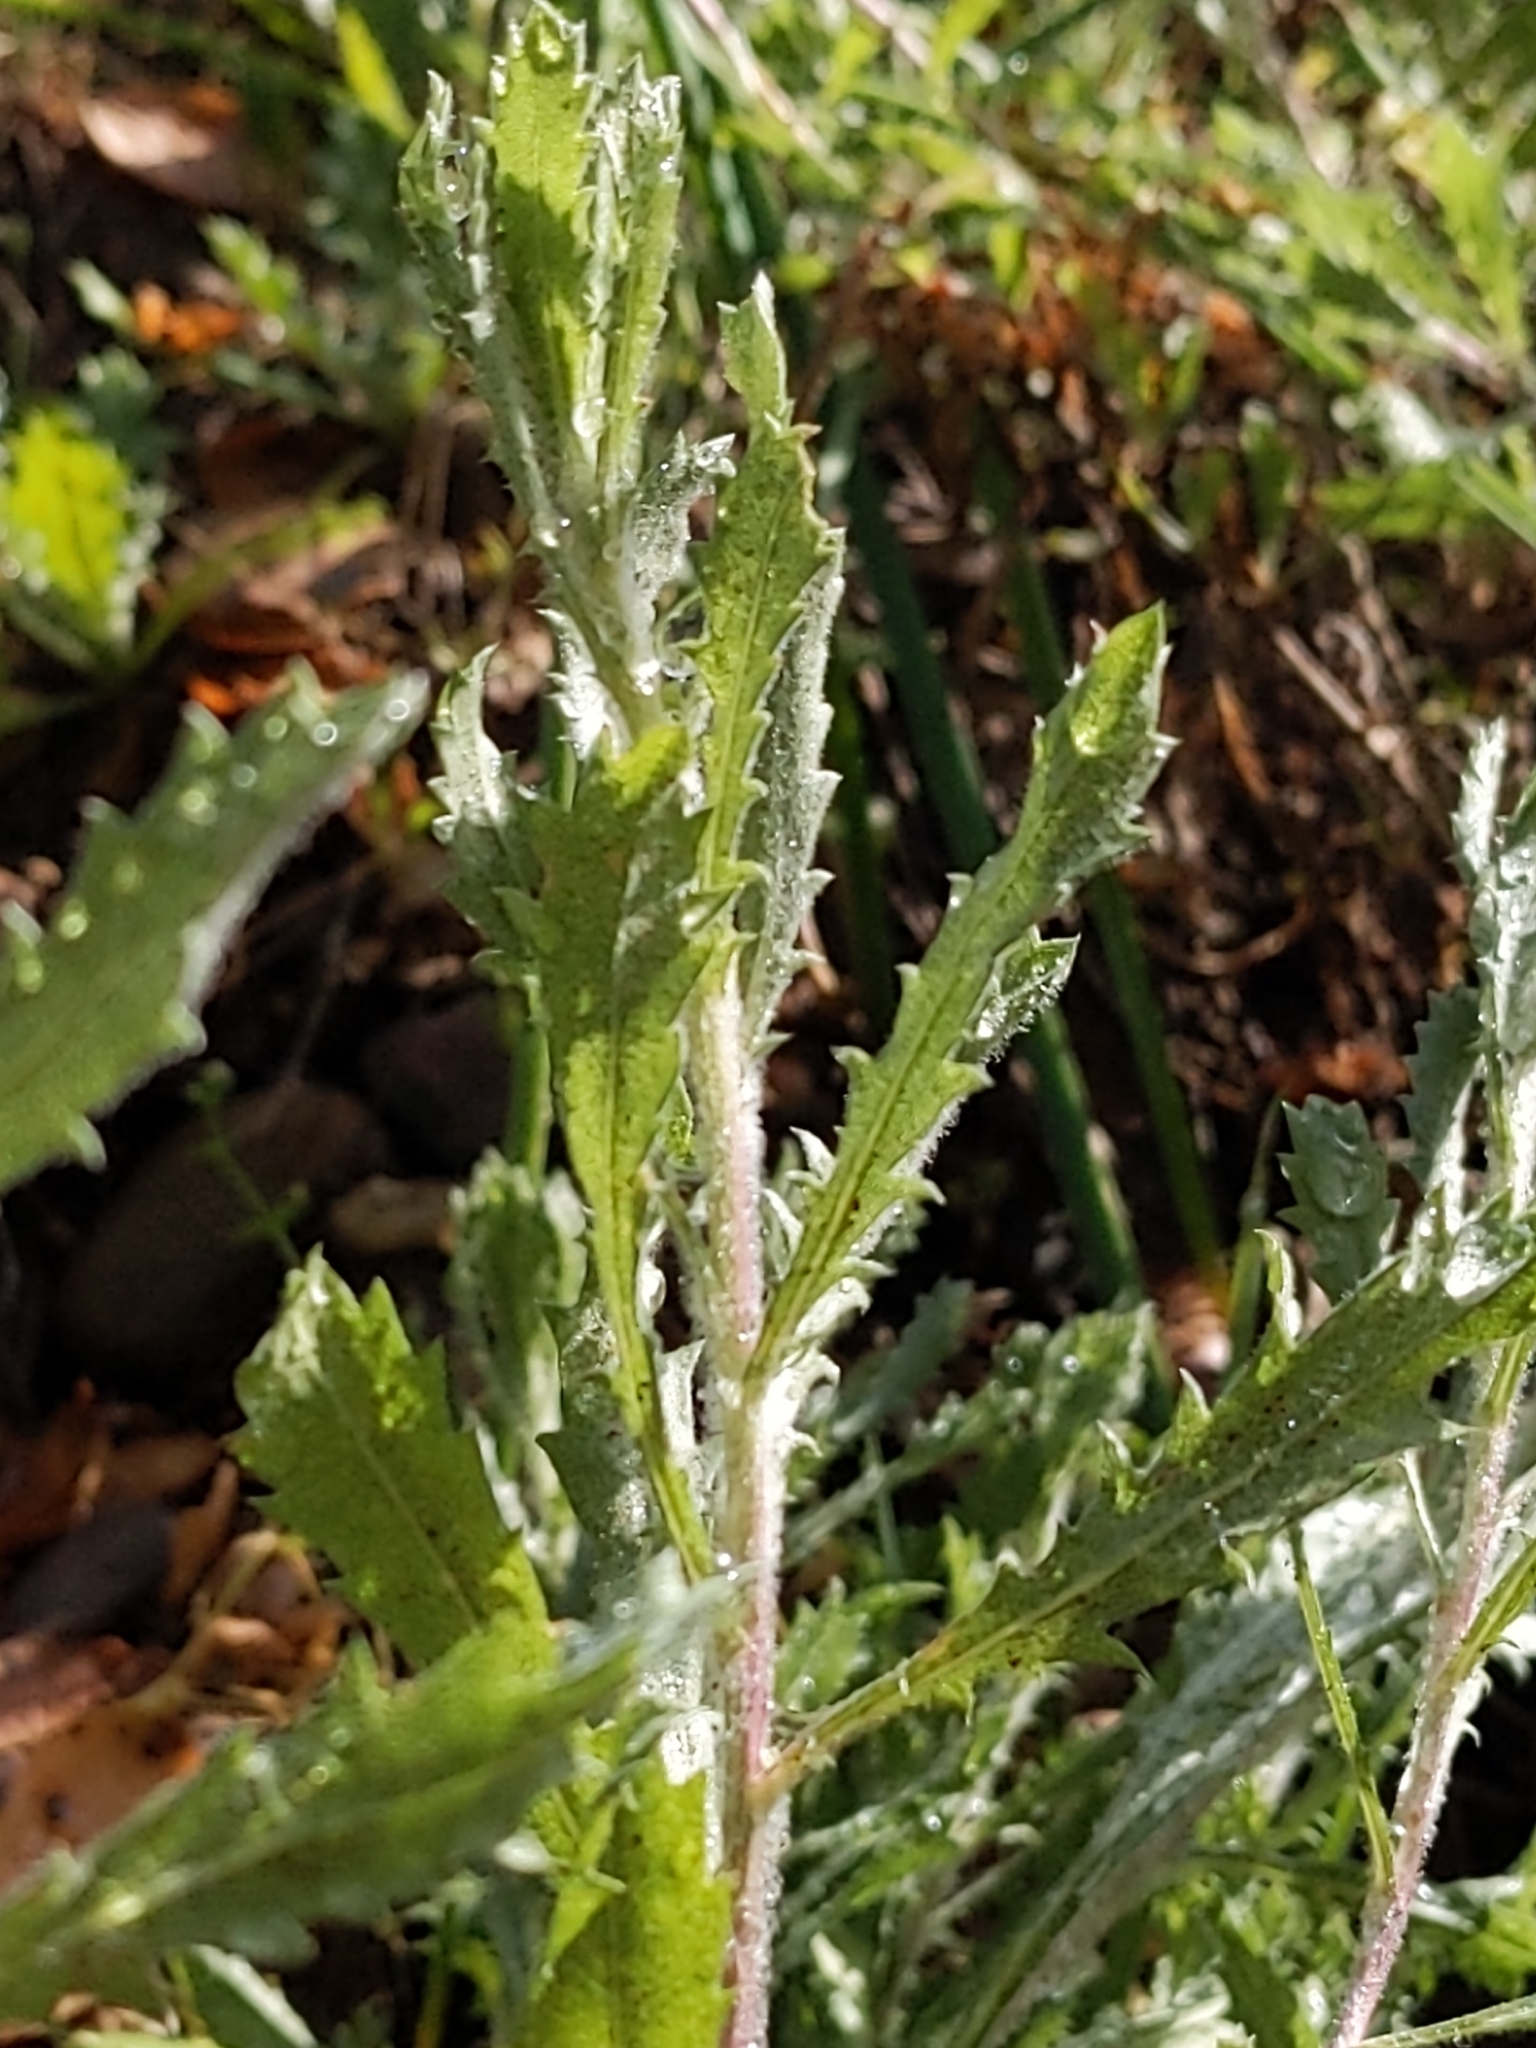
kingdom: Plantae
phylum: Tracheophyta
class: Magnoliopsida
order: Asterales
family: Asteraceae
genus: Isocoma
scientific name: Isocoma menziesii
